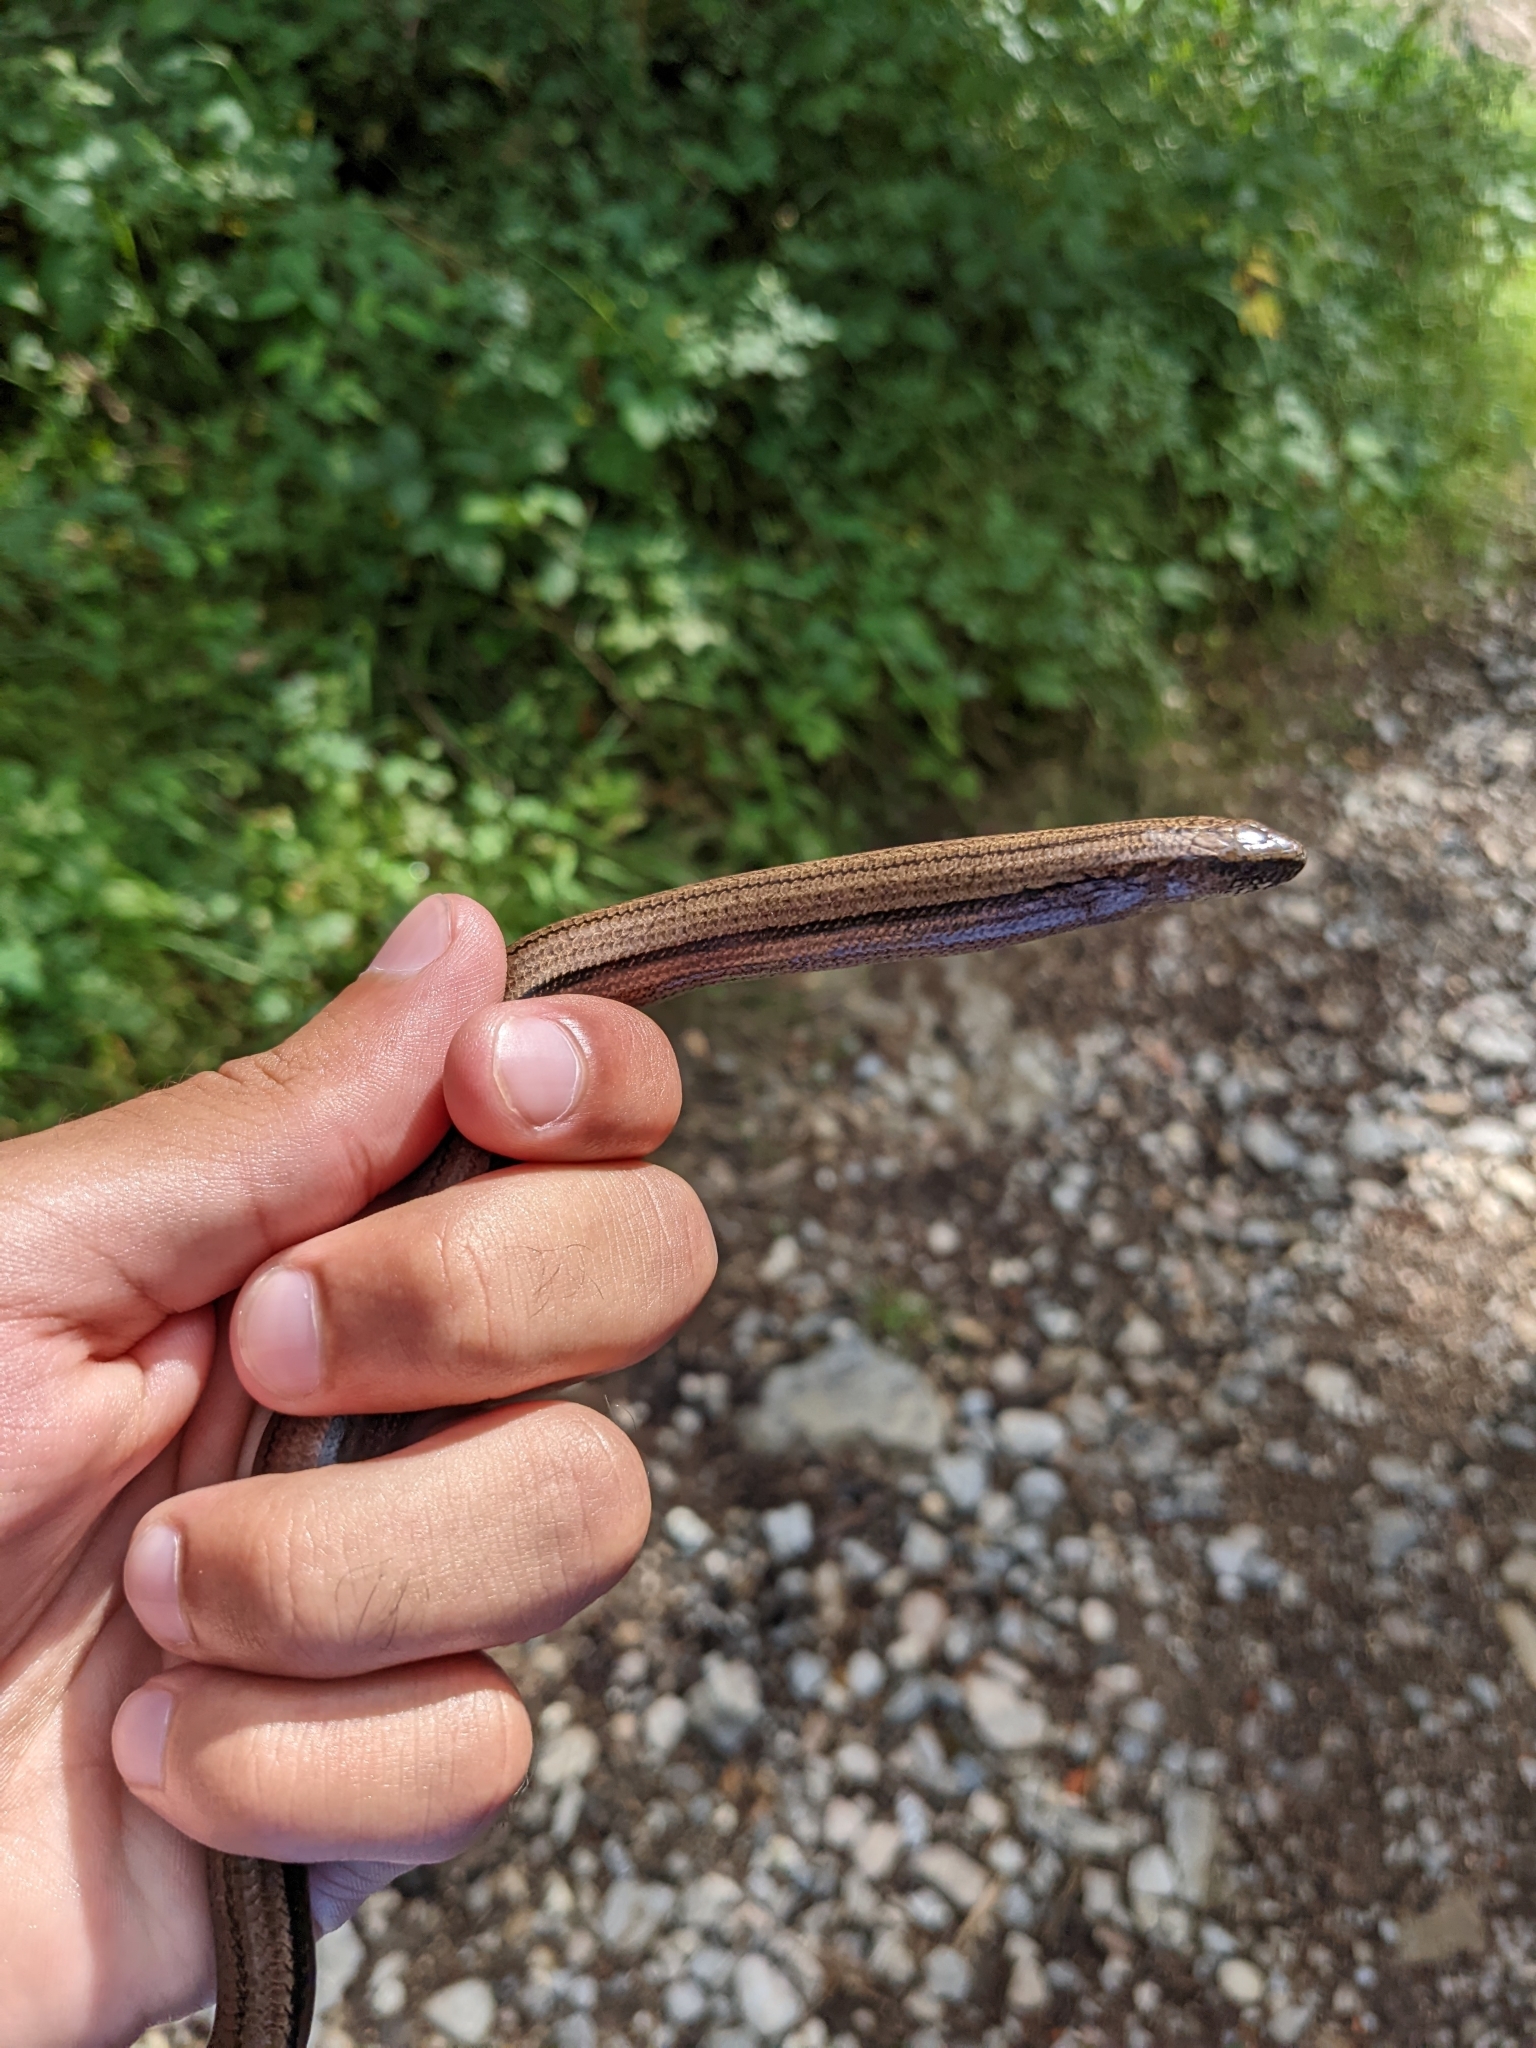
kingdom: Animalia
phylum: Chordata
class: Squamata
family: Anguidae
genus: Anguis
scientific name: Anguis fragilis
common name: Slow worm
